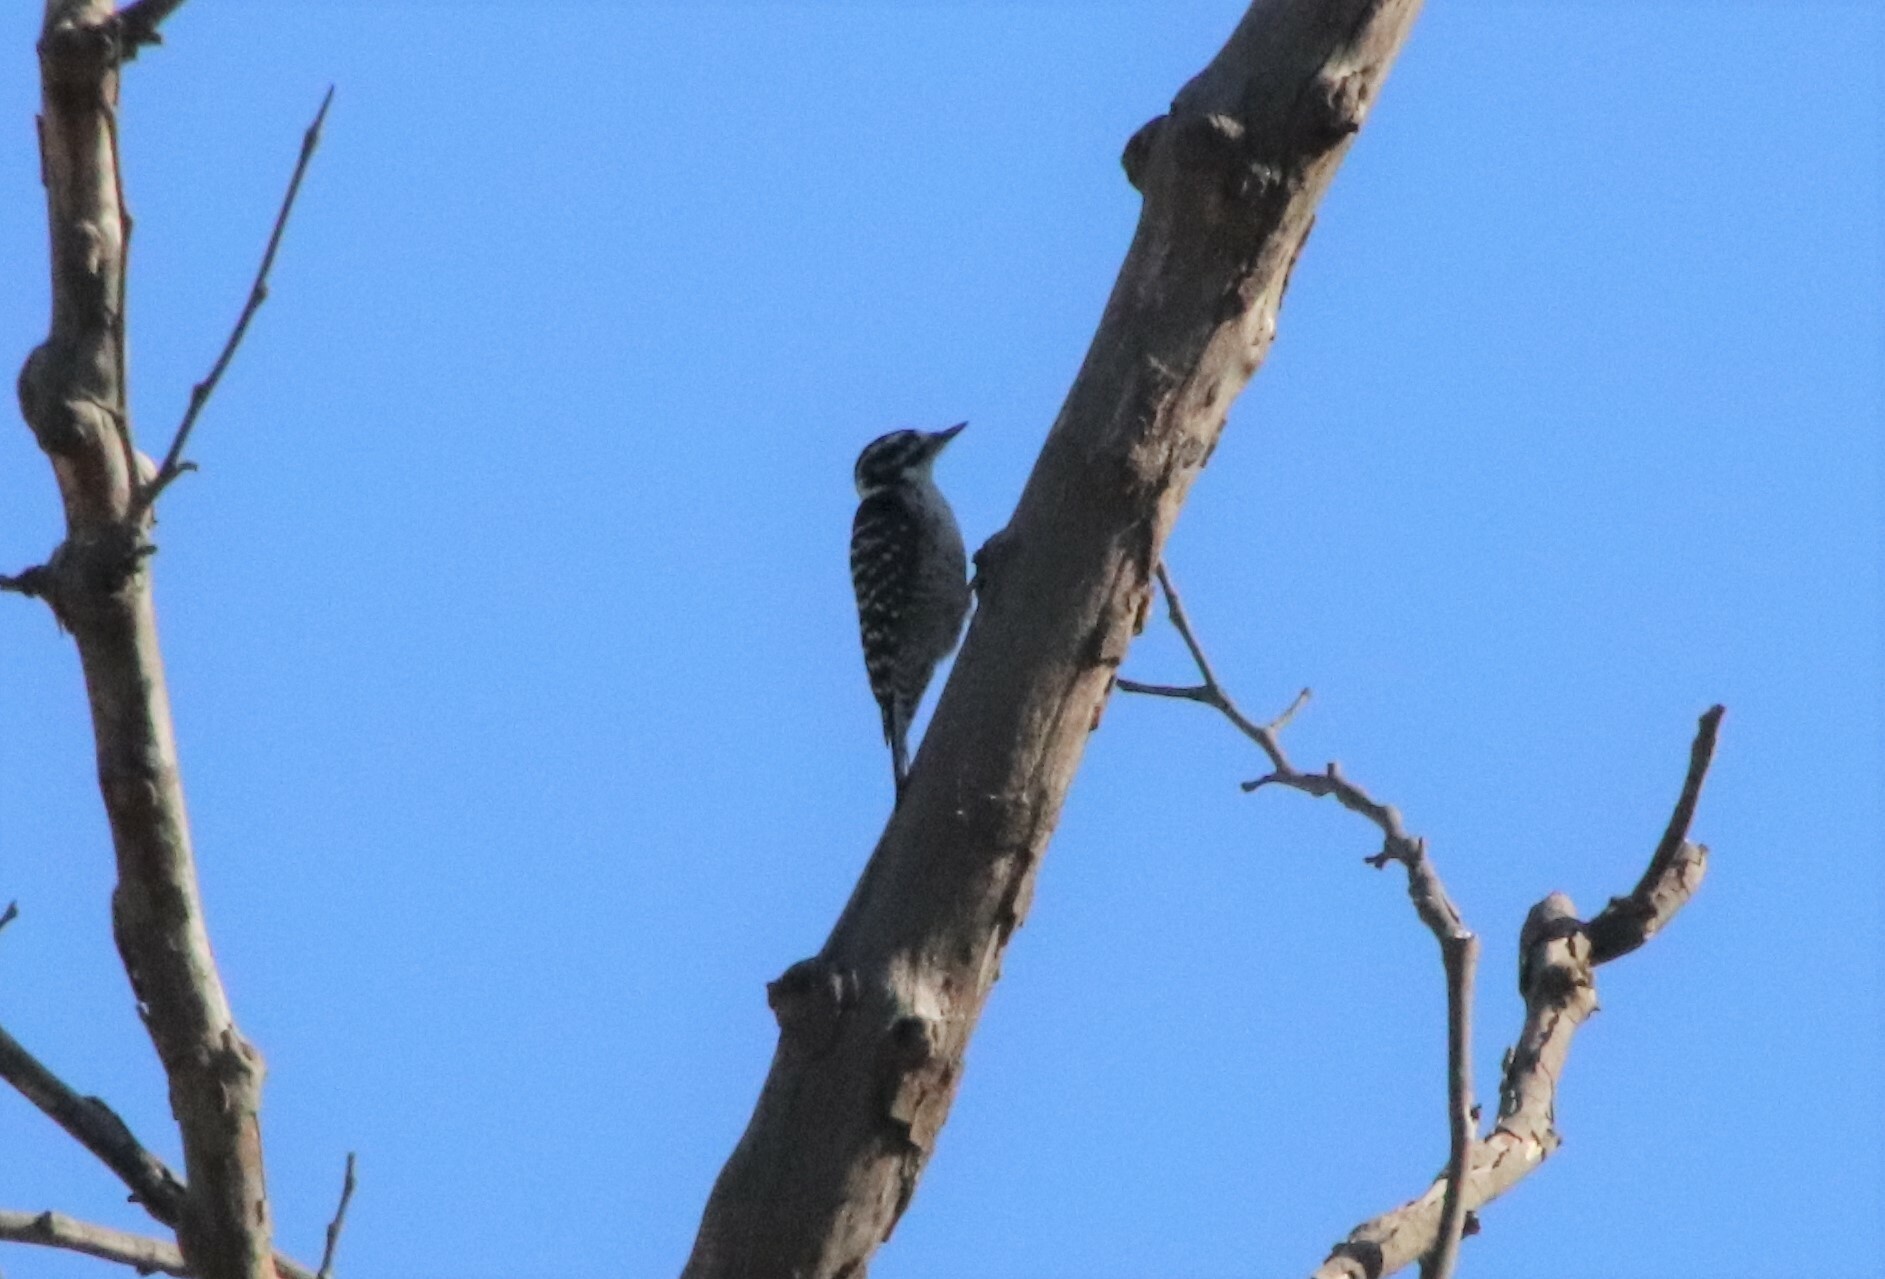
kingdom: Animalia
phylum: Chordata
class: Aves
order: Piciformes
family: Picidae
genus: Dryobates
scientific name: Dryobates nuttallii
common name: Nuttall's woodpecker
